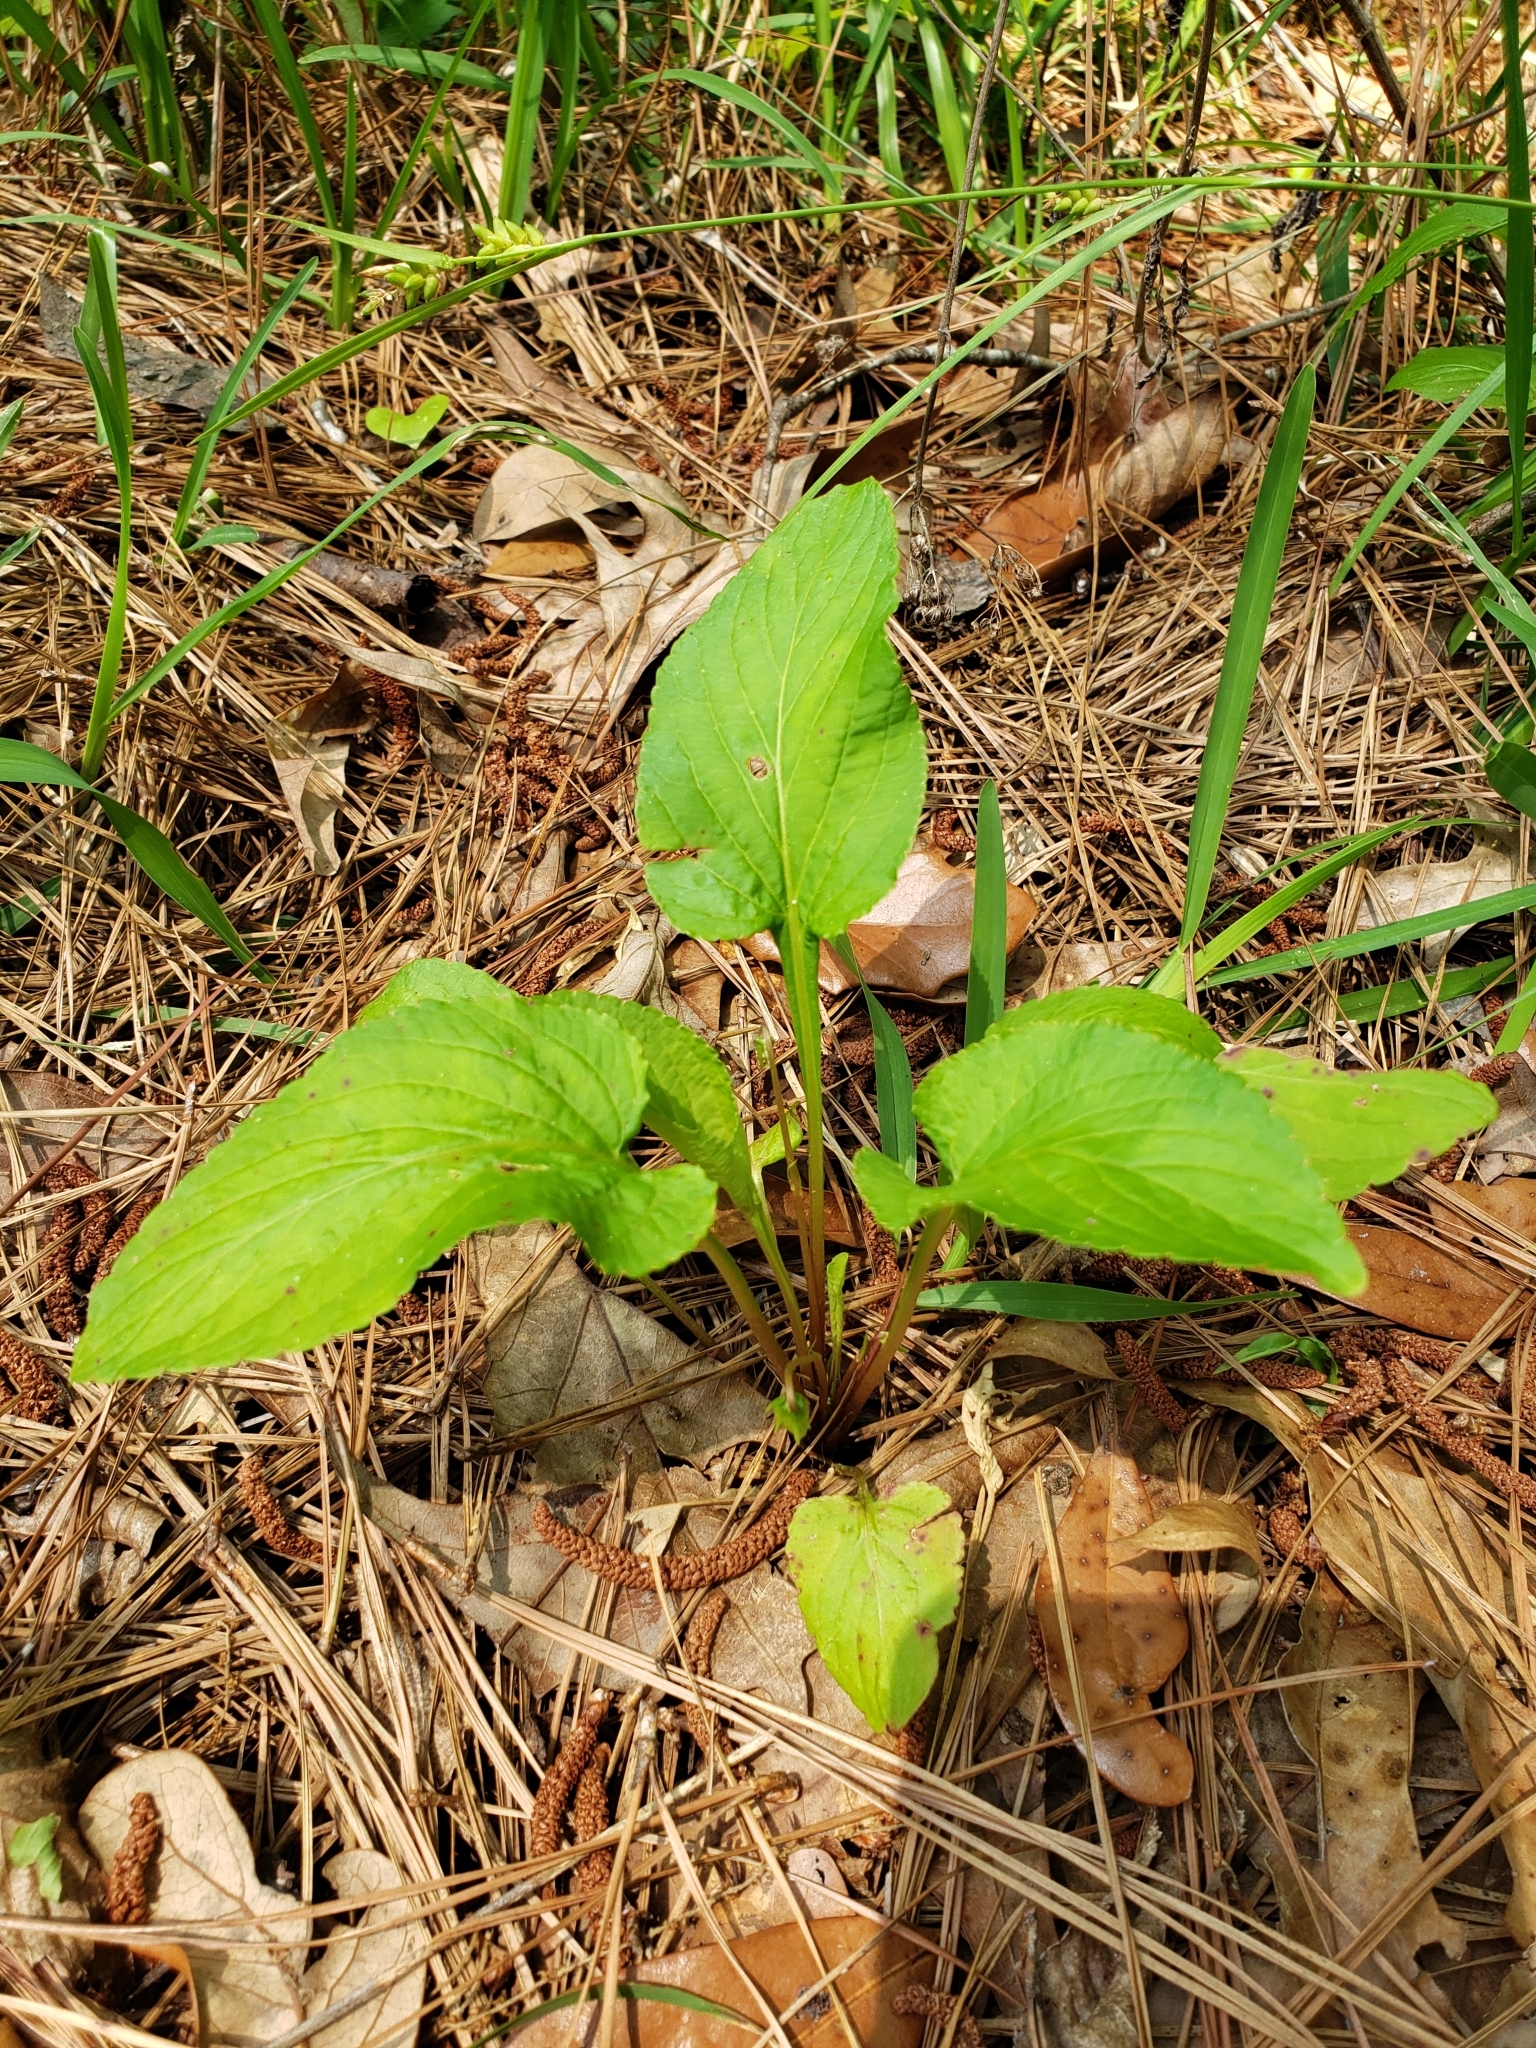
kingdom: Plantae
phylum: Tracheophyta
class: Magnoliopsida
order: Malpighiales
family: Violaceae
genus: Viola
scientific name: Viola primulifolia
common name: Primrose-leaf violet
